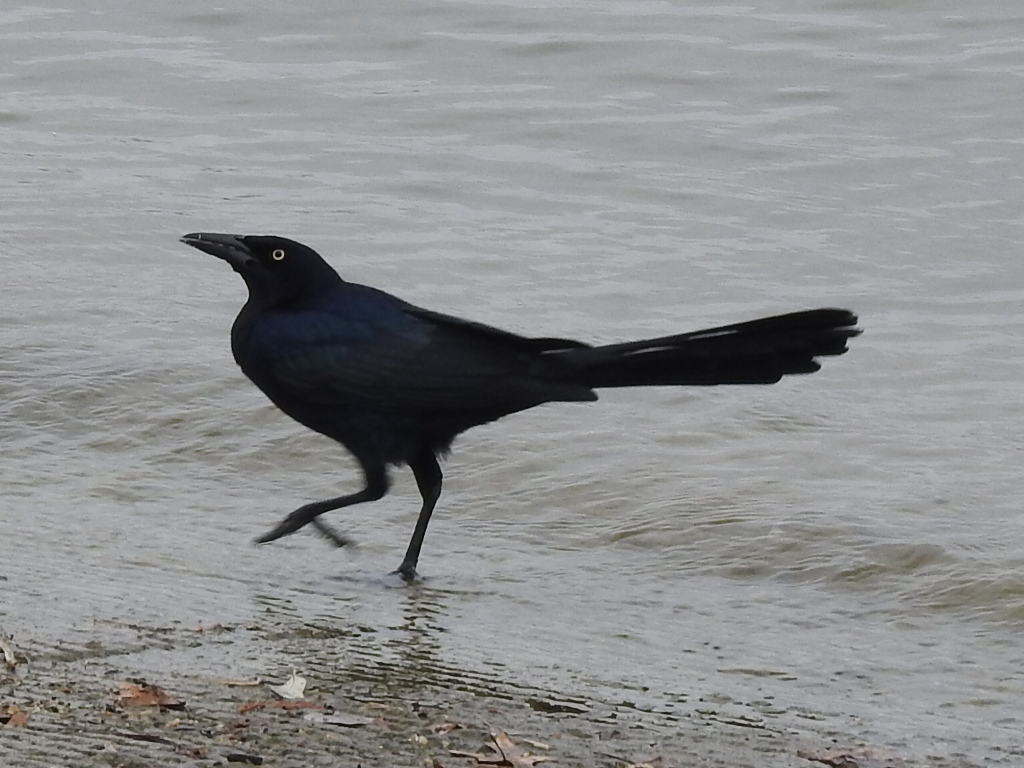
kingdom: Animalia
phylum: Chordata
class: Aves
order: Passeriformes
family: Icteridae
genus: Quiscalus
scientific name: Quiscalus mexicanus
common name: Great-tailed grackle
